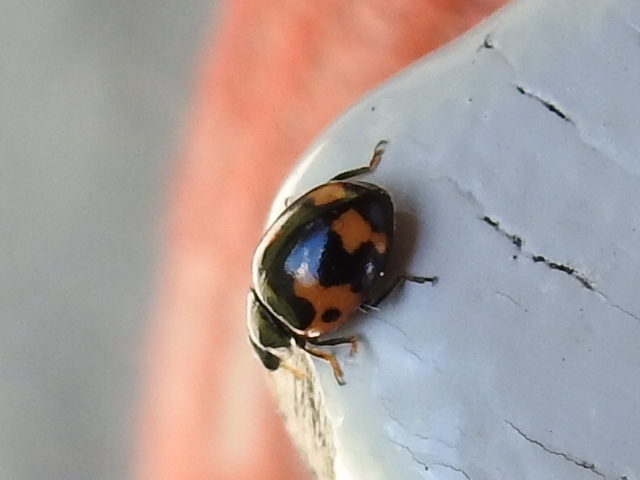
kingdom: Animalia
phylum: Arthropoda
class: Insecta
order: Coleoptera
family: Coccinellidae
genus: Ceratomegilla
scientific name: Ceratomegilla alpina
